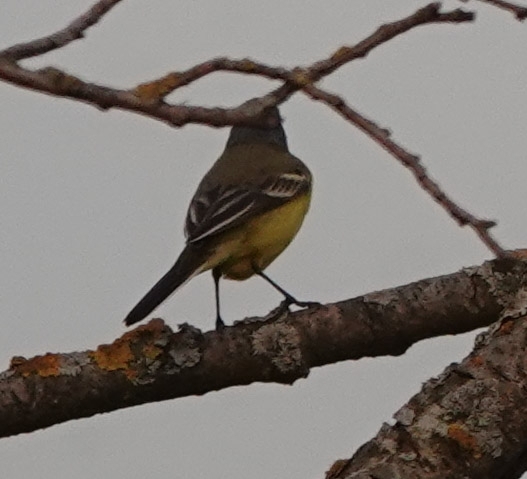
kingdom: Animalia
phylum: Chordata
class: Aves
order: Passeriformes
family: Motacillidae
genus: Motacilla
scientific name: Motacilla flava
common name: Western yellow wagtail
